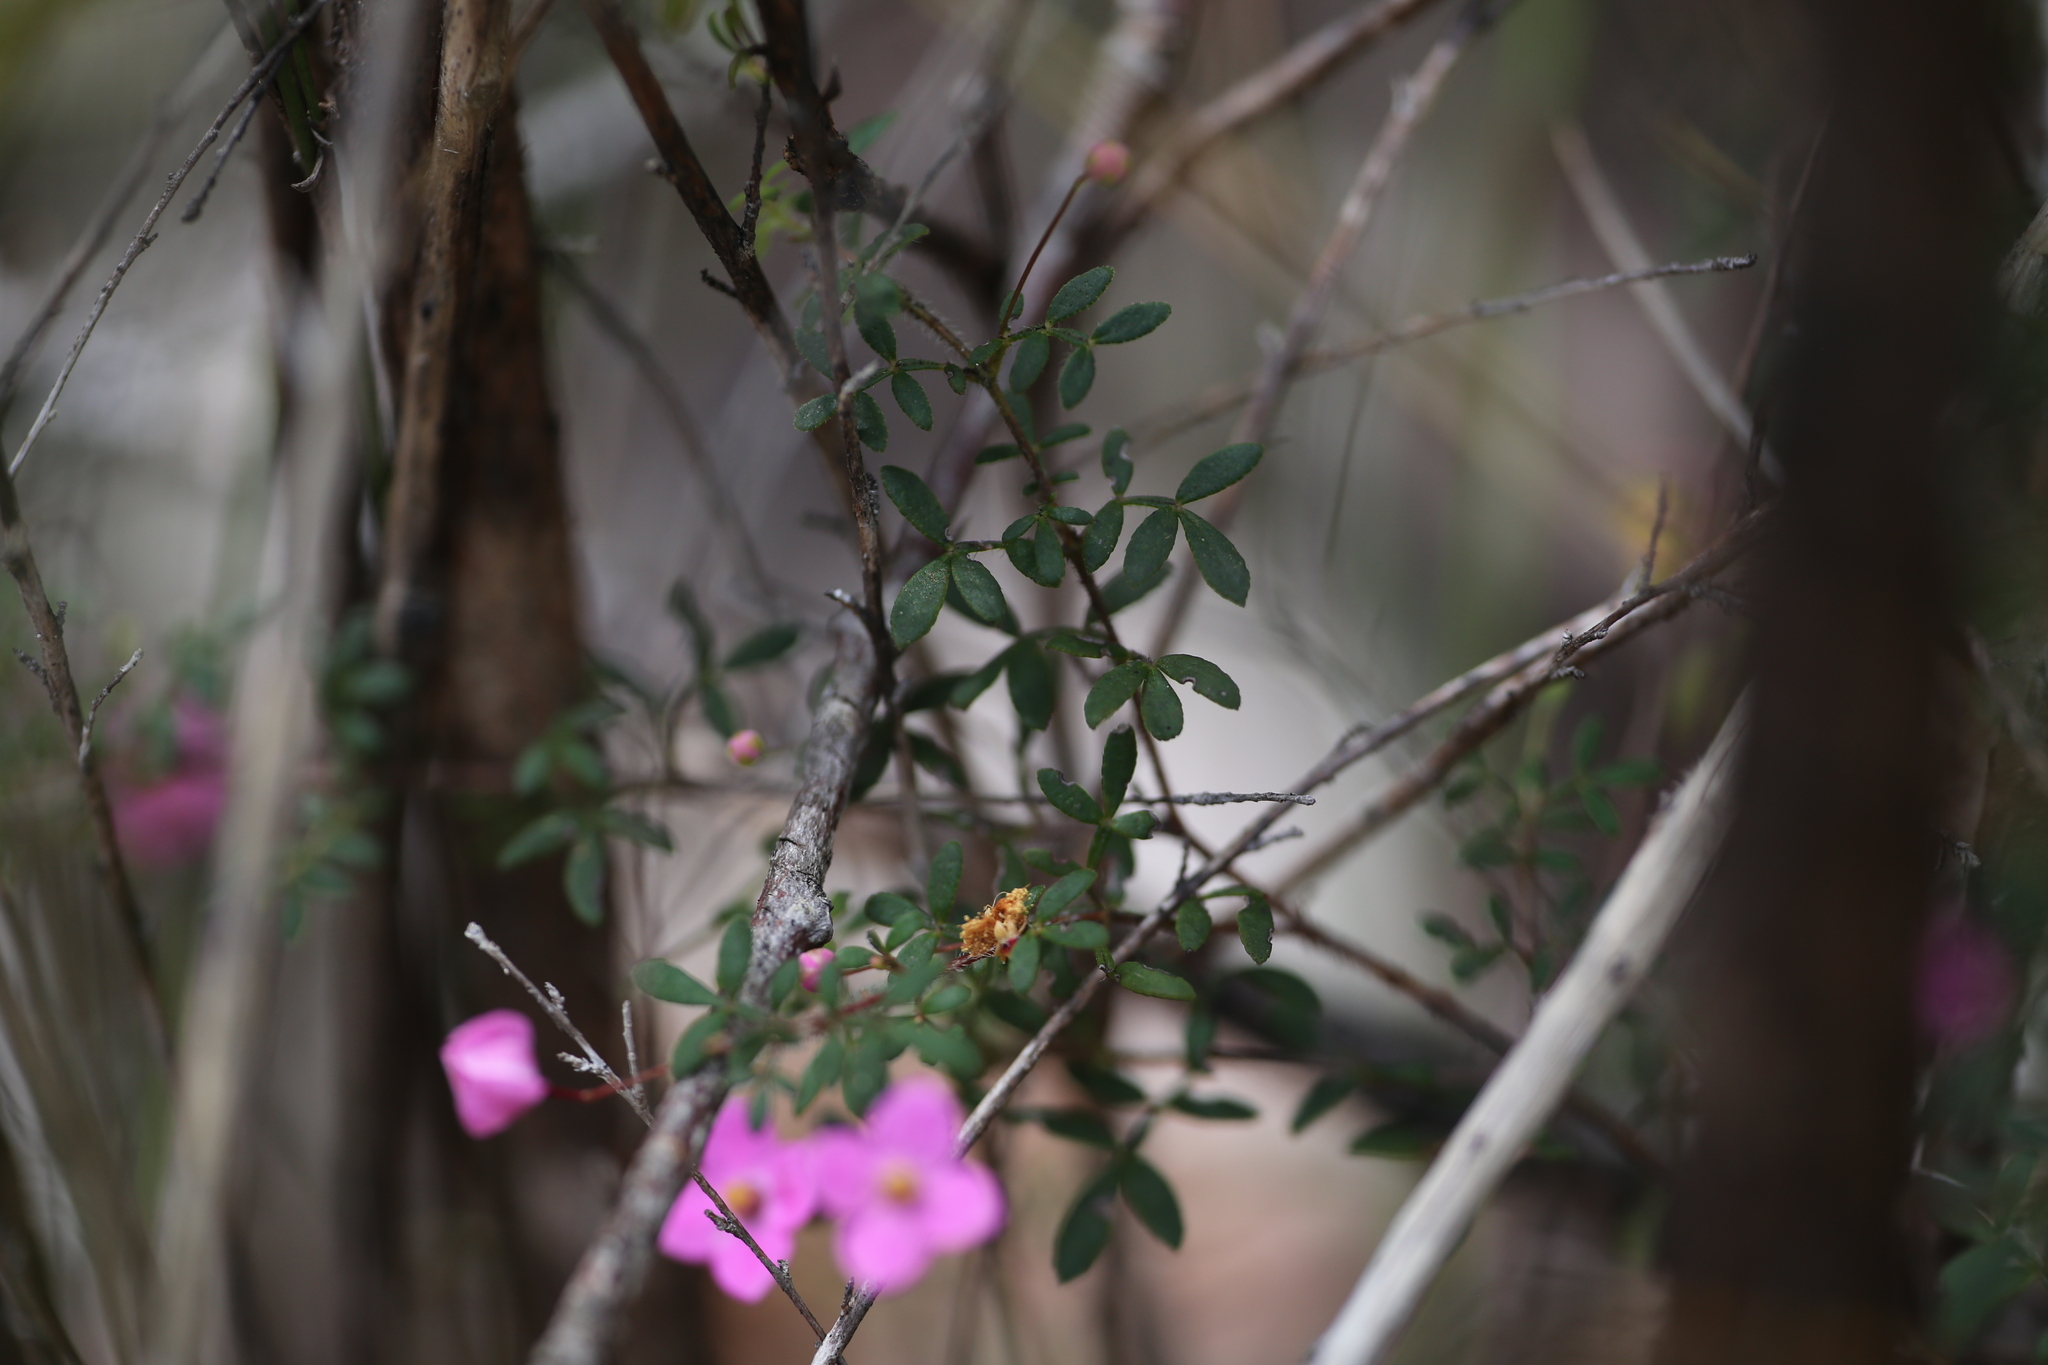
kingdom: Plantae
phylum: Tracheophyta
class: Magnoliopsida
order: Sapindales
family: Rutaceae
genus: Boronia
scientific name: Boronia gracilipes
